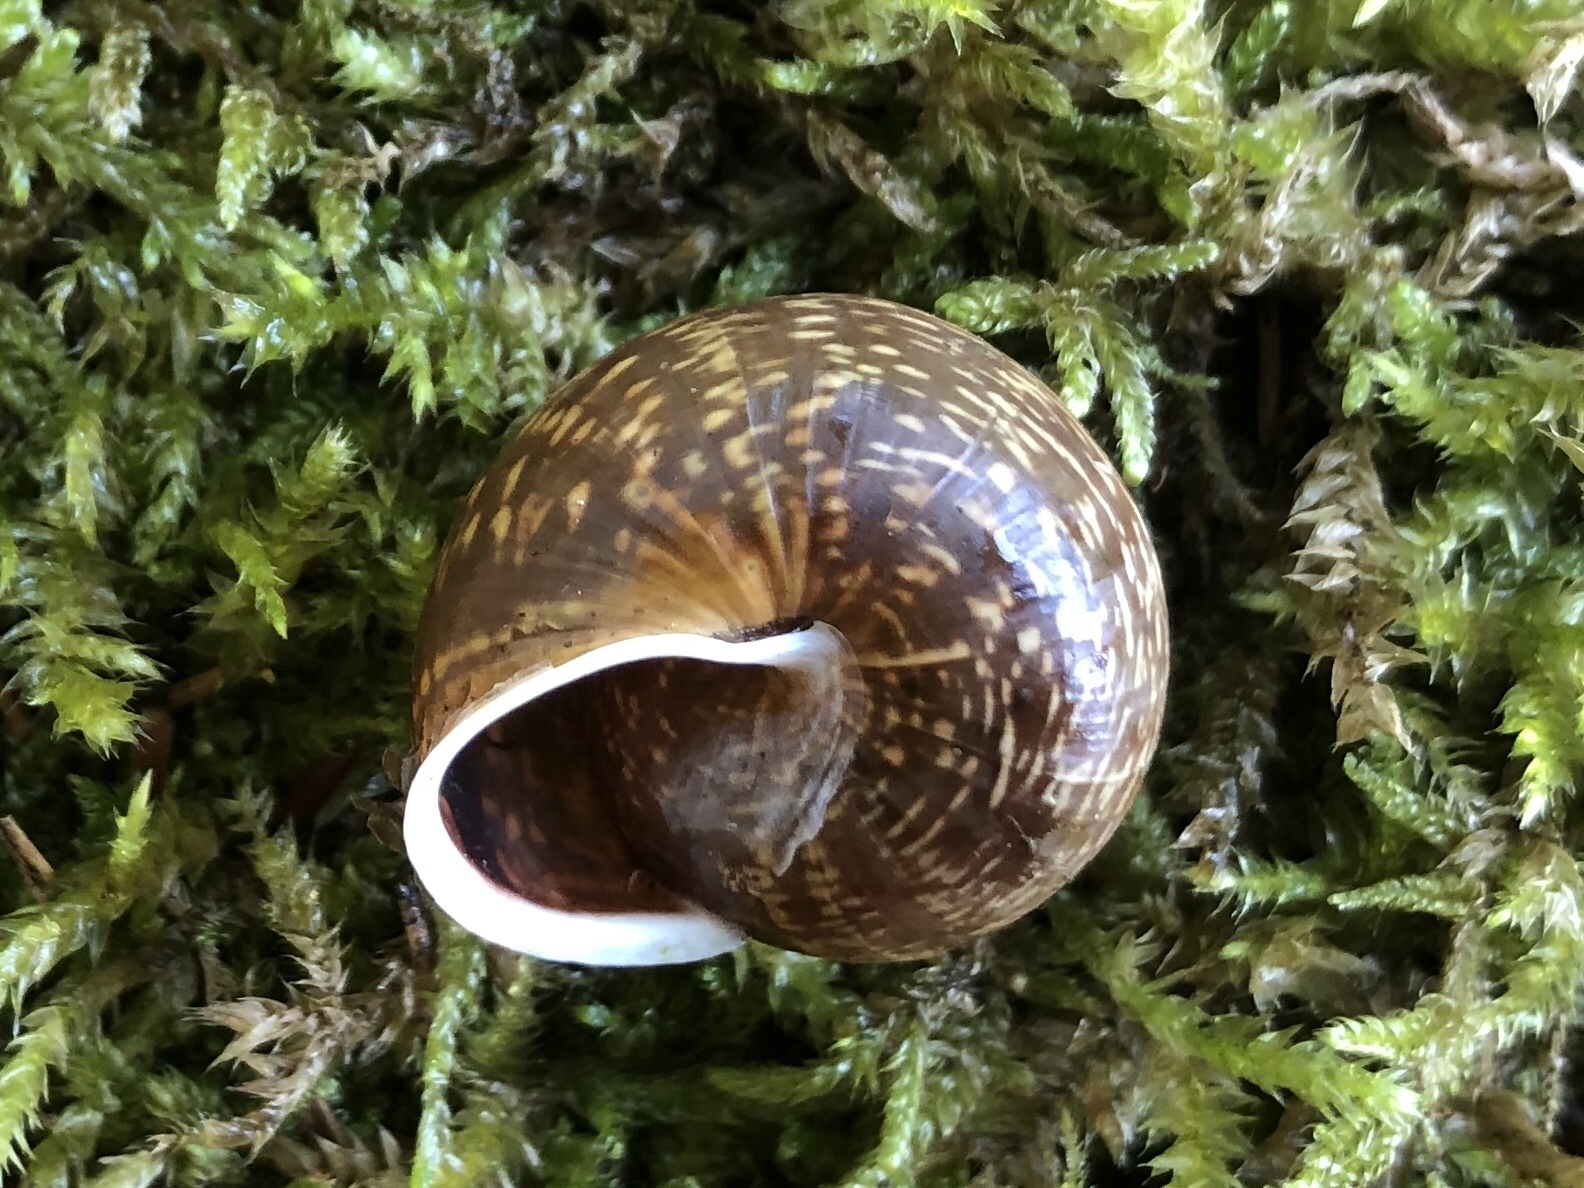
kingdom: Animalia
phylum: Mollusca
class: Gastropoda
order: Stylommatophora
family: Helicidae
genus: Arianta
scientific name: Arianta arbustorum
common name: Copse snail
